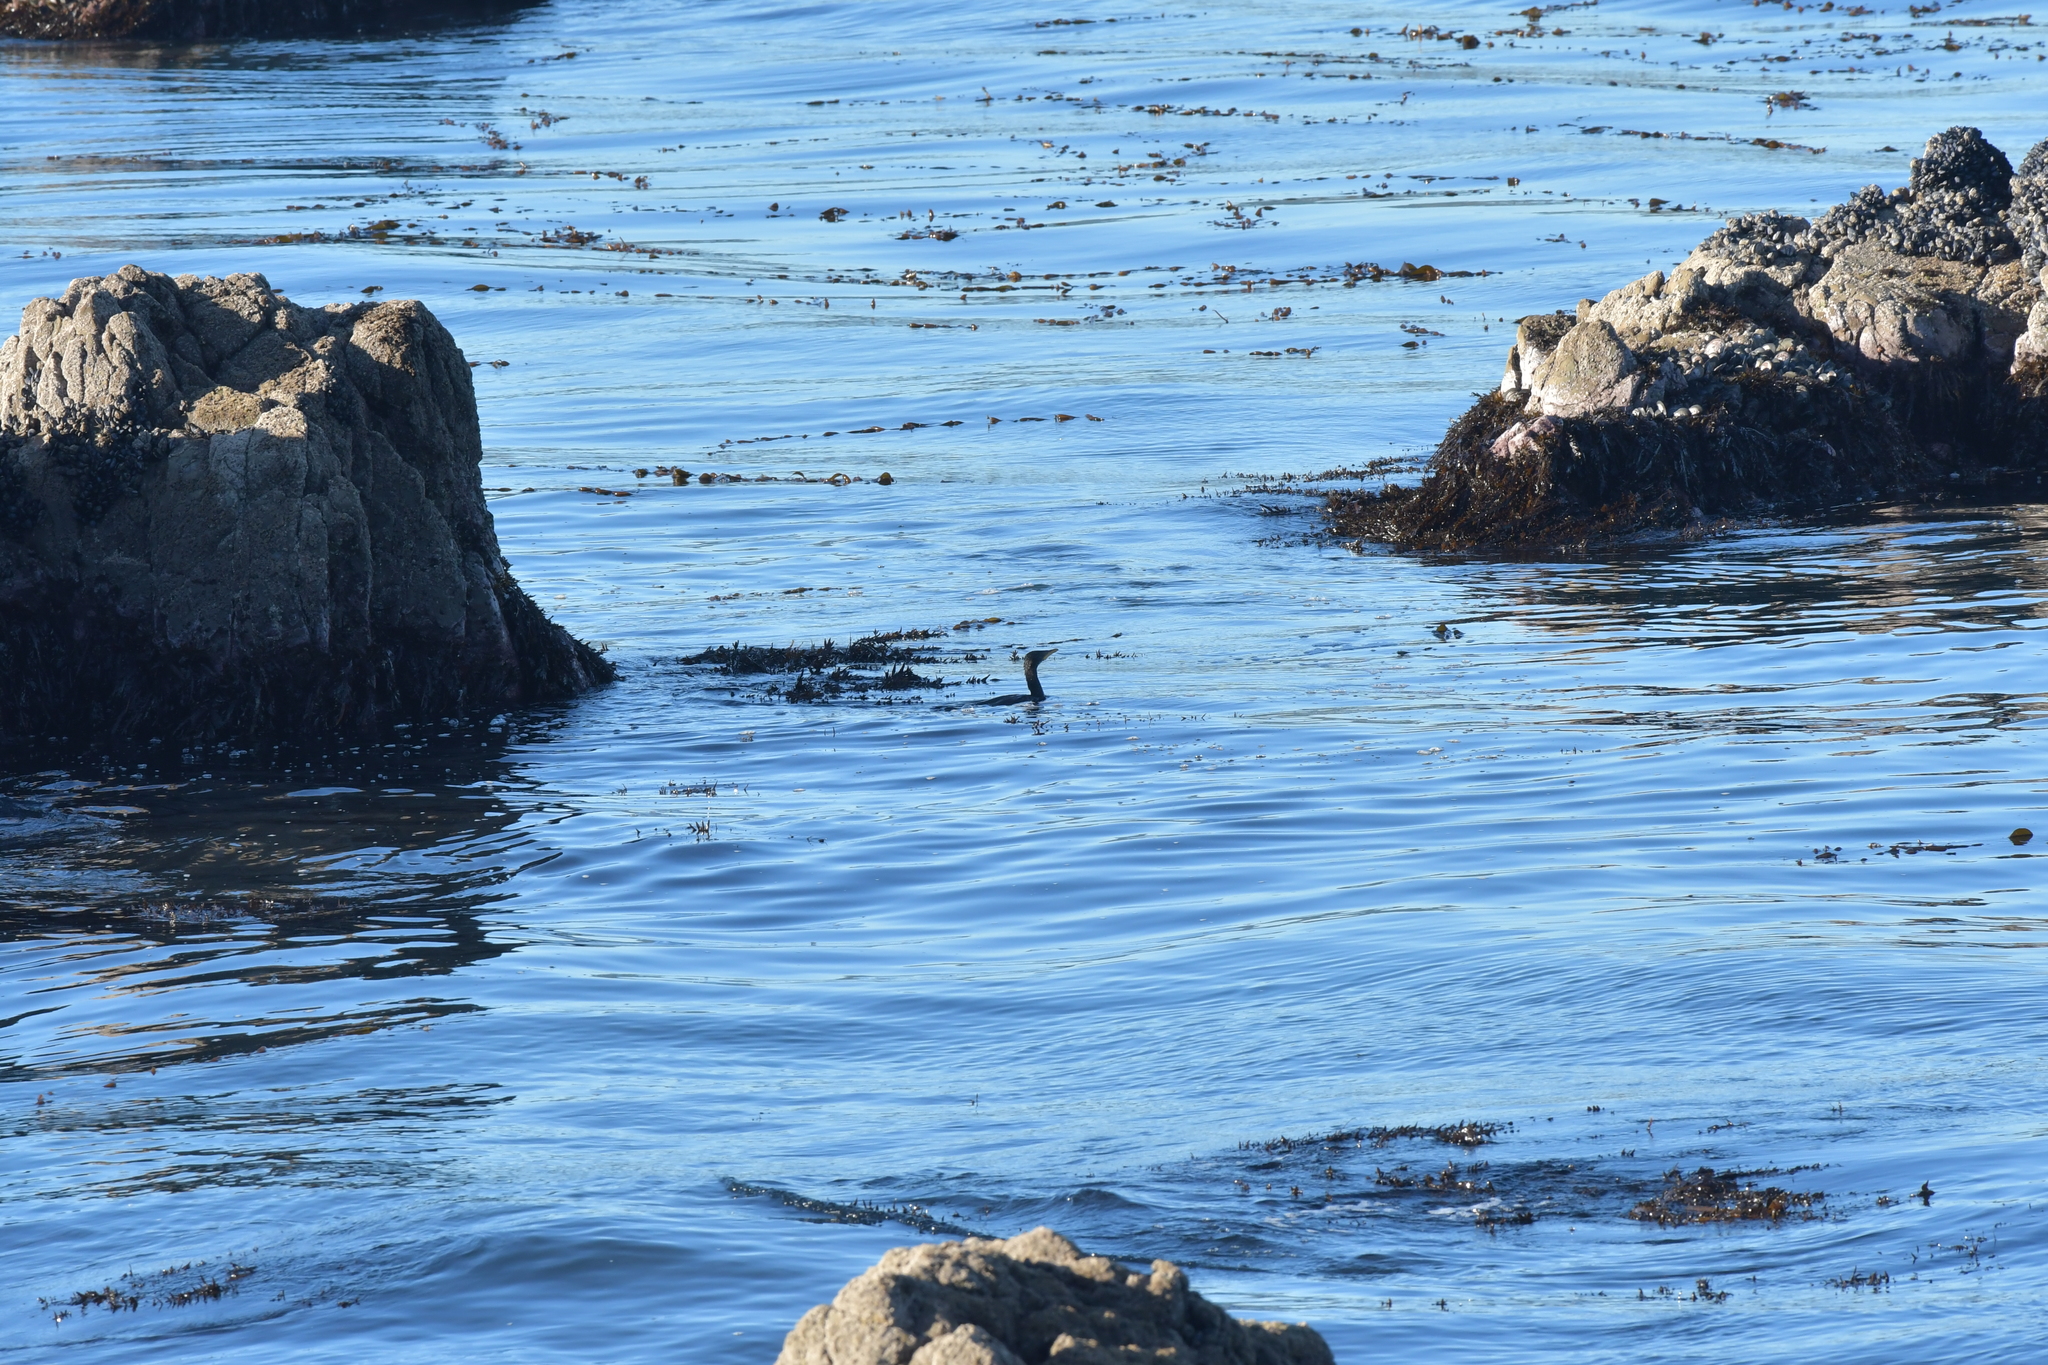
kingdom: Animalia
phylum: Chordata
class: Aves
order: Suliformes
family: Phalacrocoracidae
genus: Microcarbo
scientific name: Microcarbo melanoleucos
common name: Little pied cormorant
